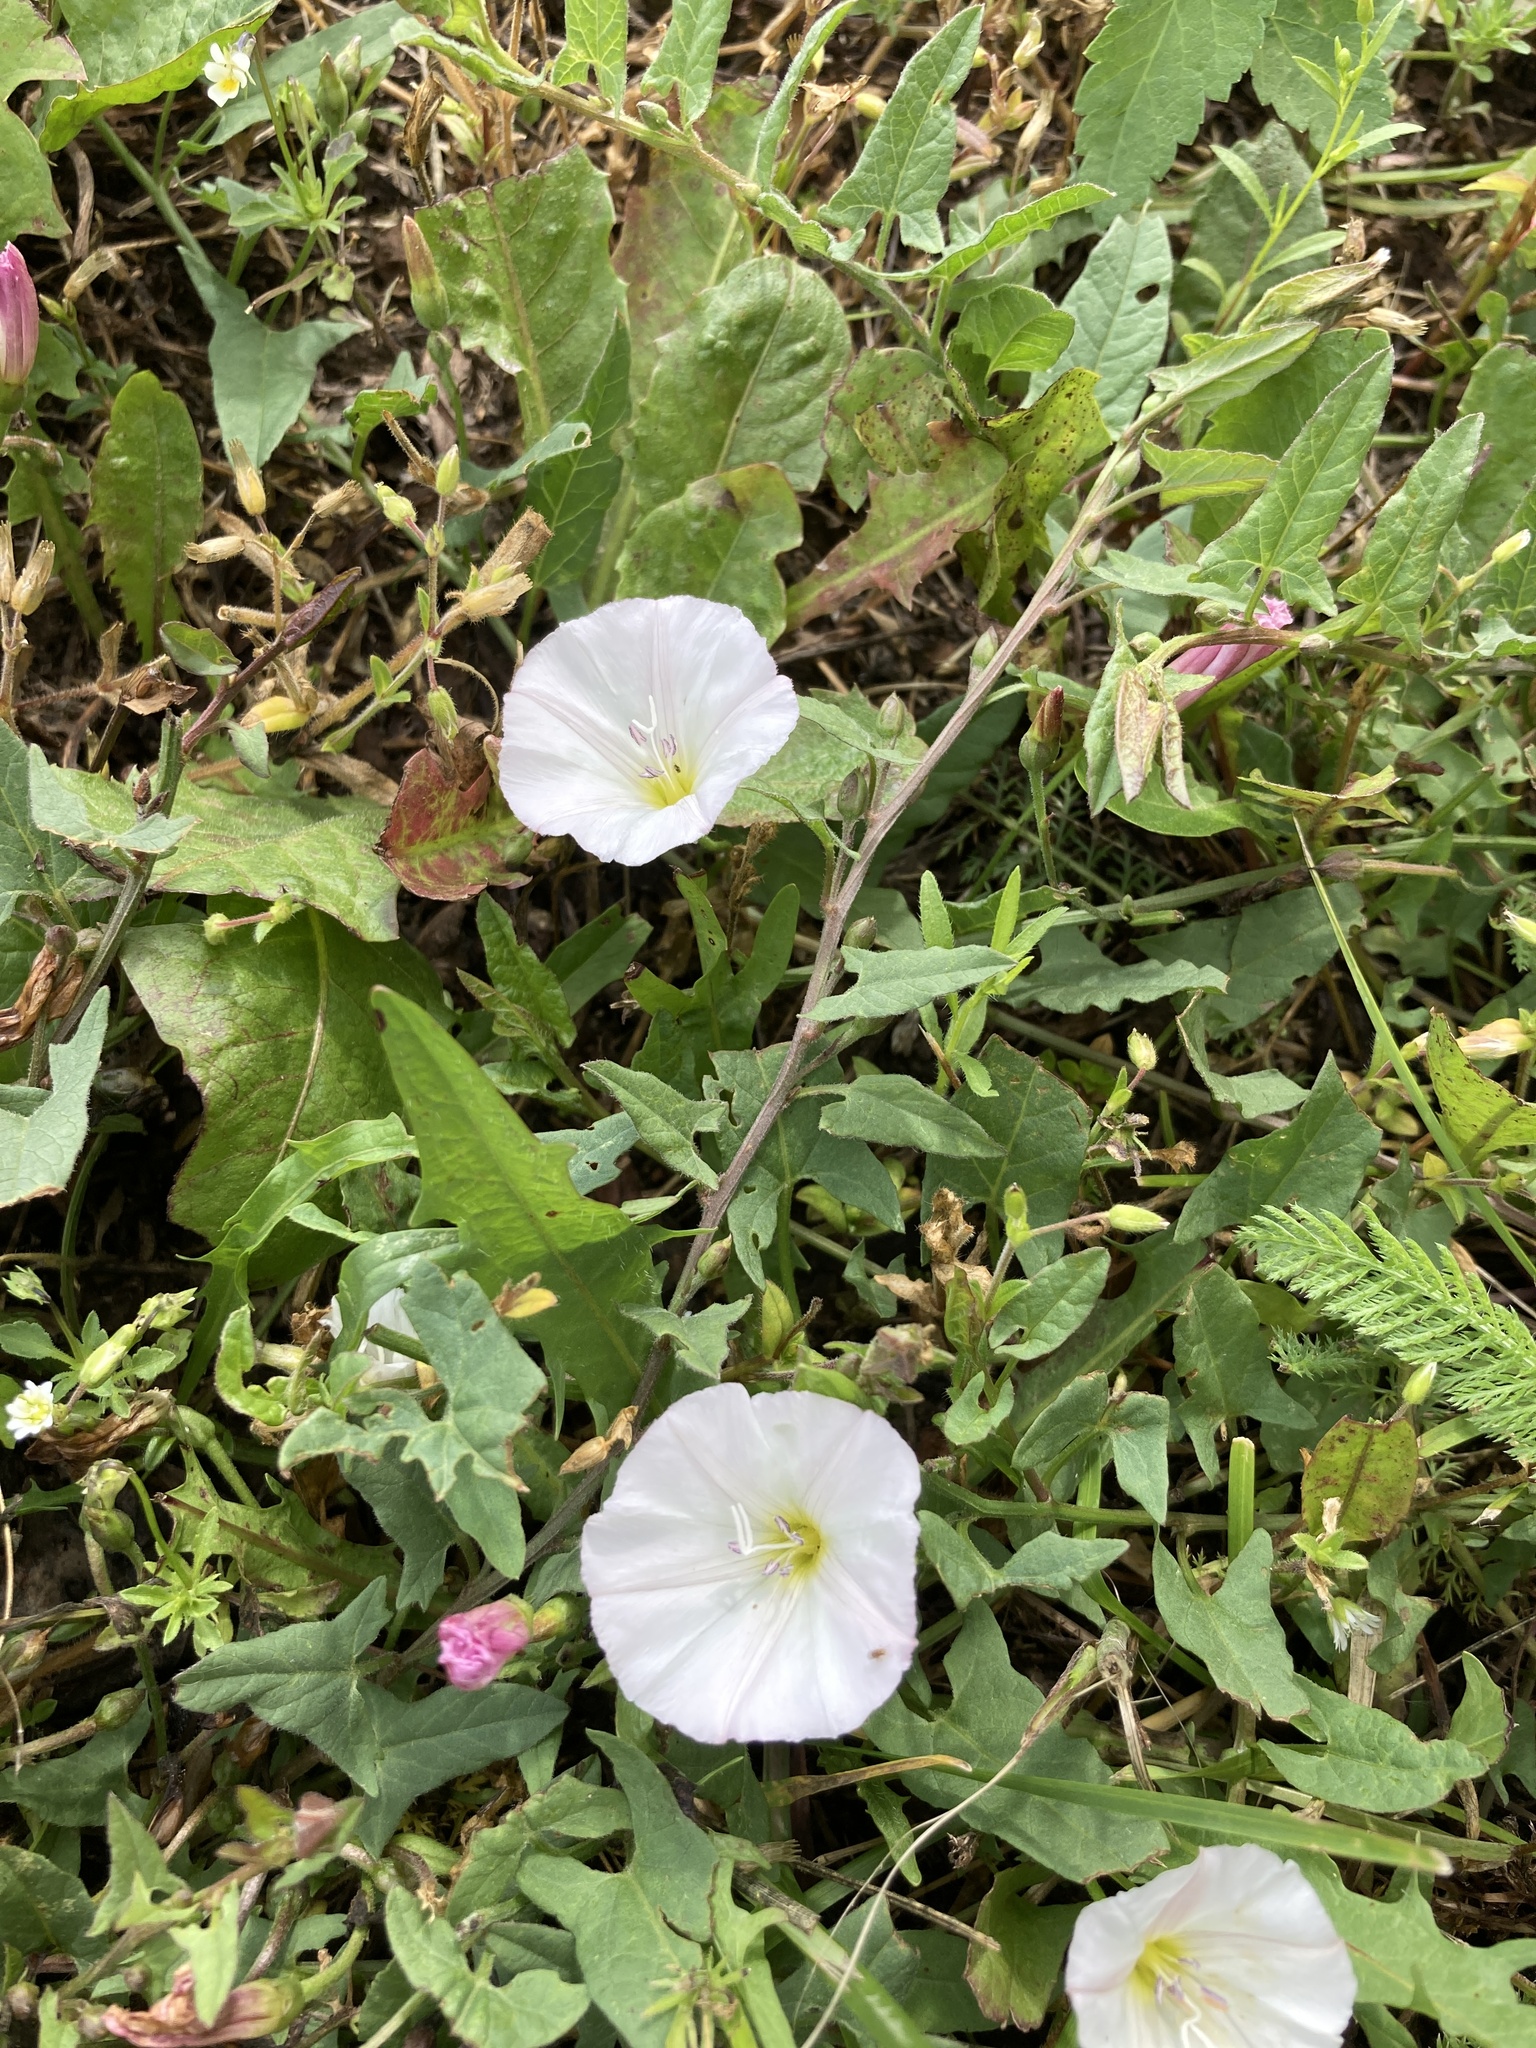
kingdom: Plantae
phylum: Tracheophyta
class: Magnoliopsida
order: Solanales
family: Convolvulaceae
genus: Convolvulus
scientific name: Convolvulus arvensis
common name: Field bindweed
